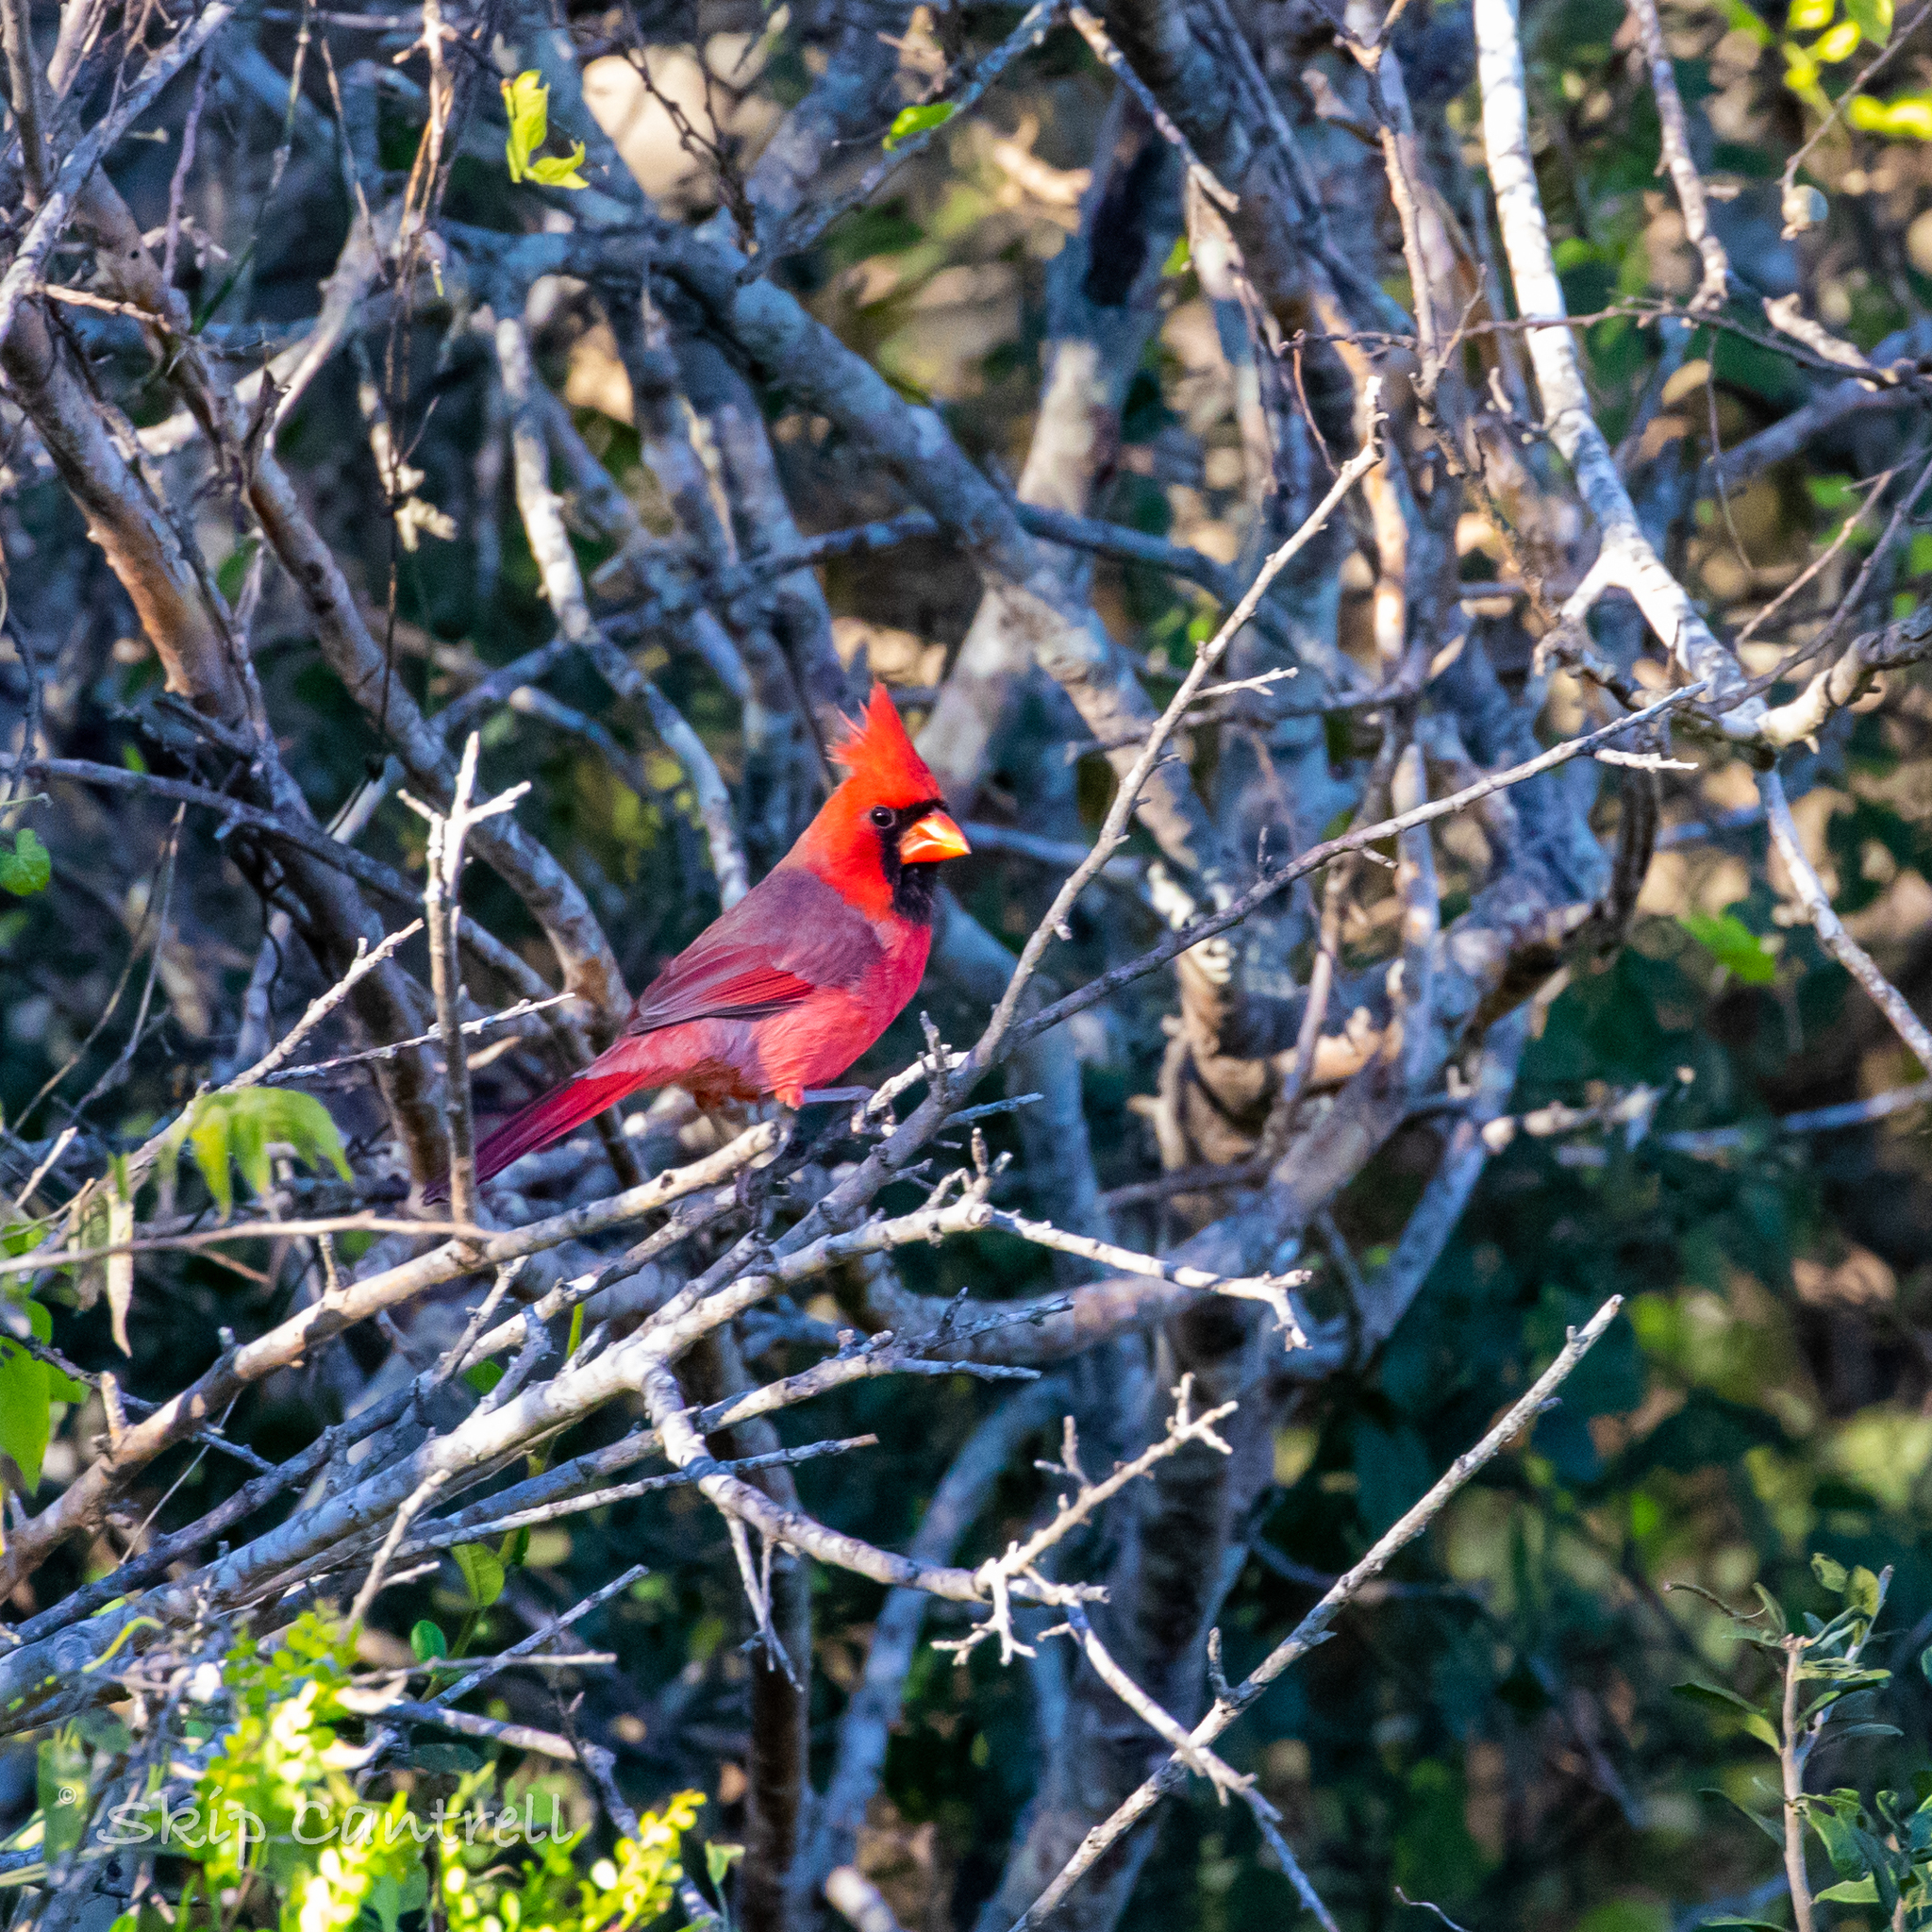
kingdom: Animalia
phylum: Chordata
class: Aves
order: Passeriformes
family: Cardinalidae
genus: Cardinalis
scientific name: Cardinalis cardinalis
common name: Northern cardinal
